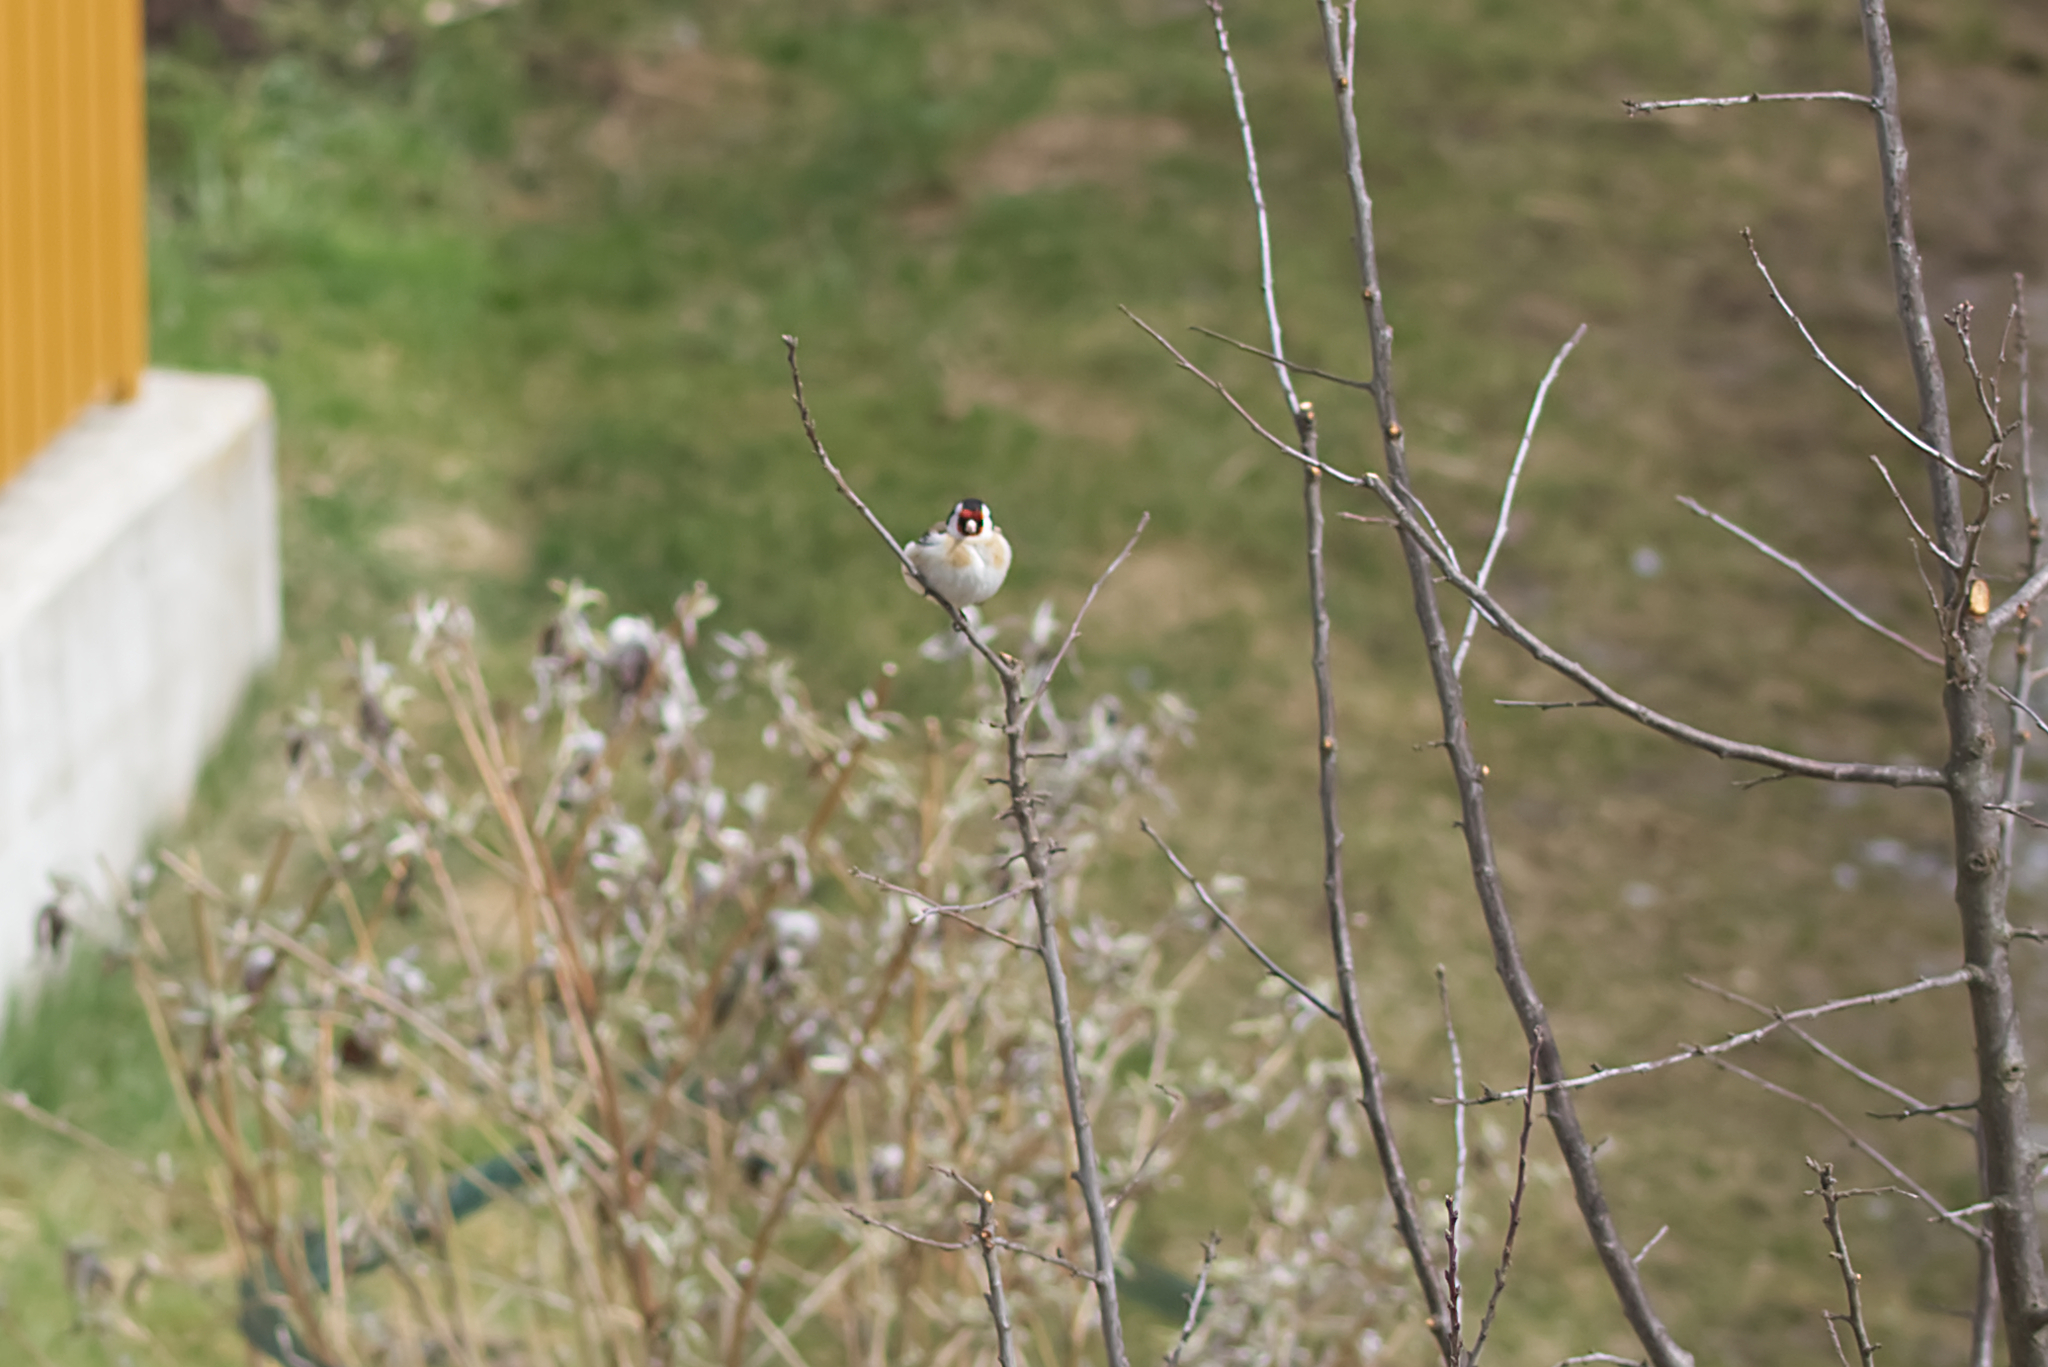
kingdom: Animalia
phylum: Chordata
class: Aves
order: Passeriformes
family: Fringillidae
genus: Carduelis
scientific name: Carduelis carduelis
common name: European goldfinch
